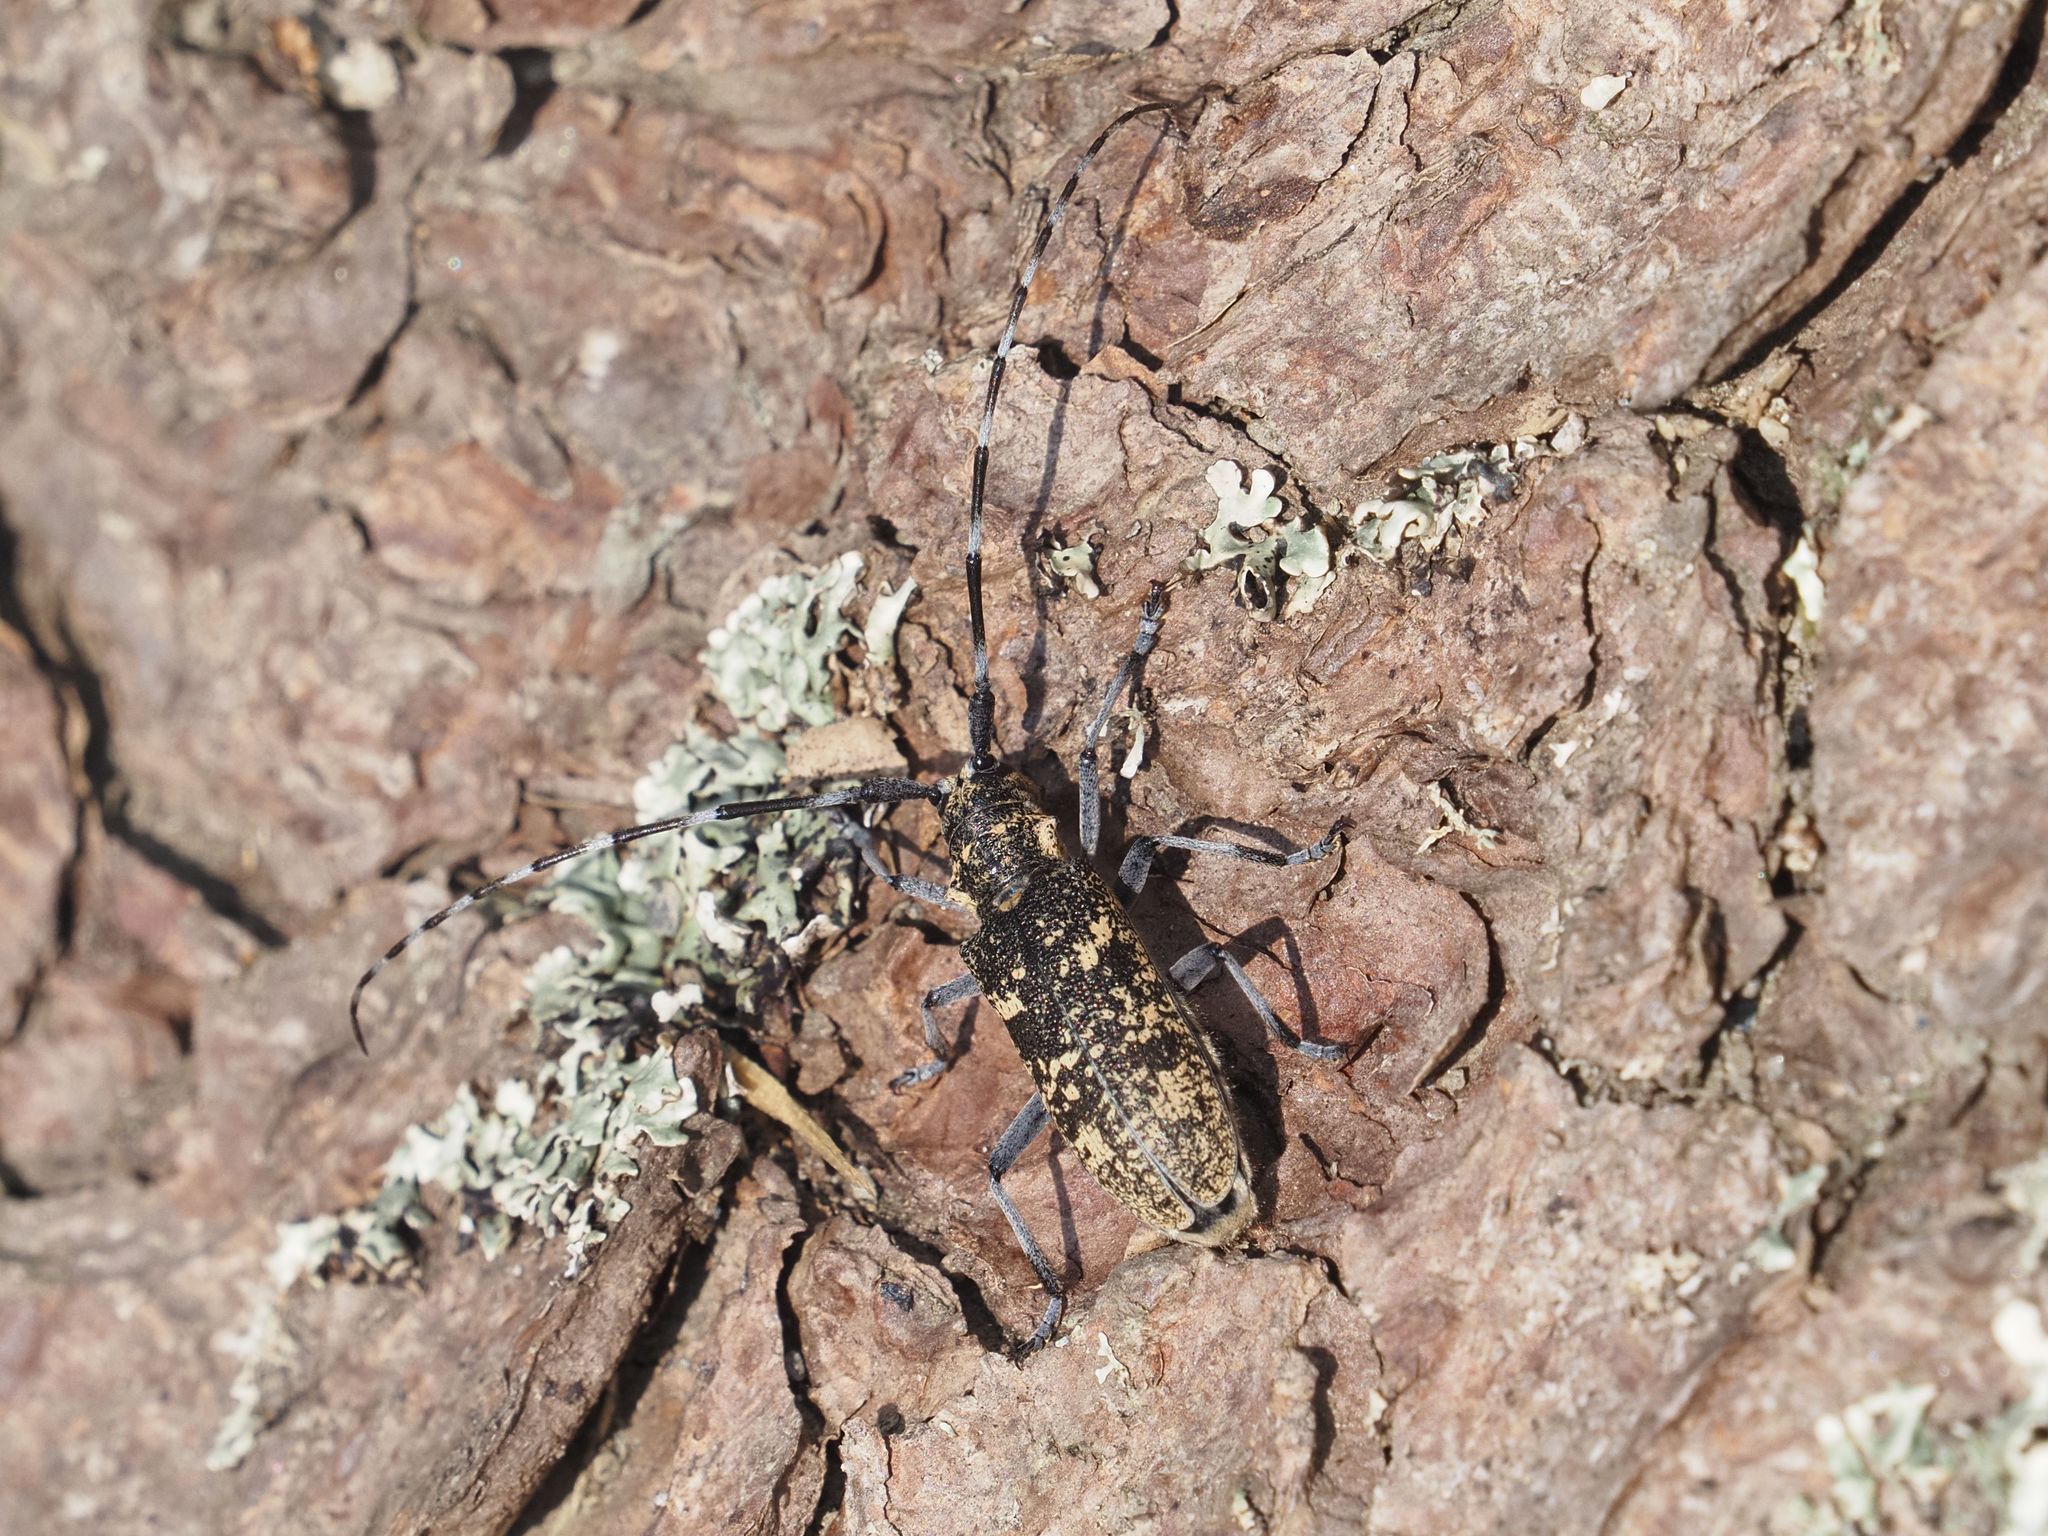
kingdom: Animalia
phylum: Arthropoda
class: Insecta
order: Coleoptera
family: Cerambycidae
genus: Monochamus
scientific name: Monochamus sutor
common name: Pine sawyer
